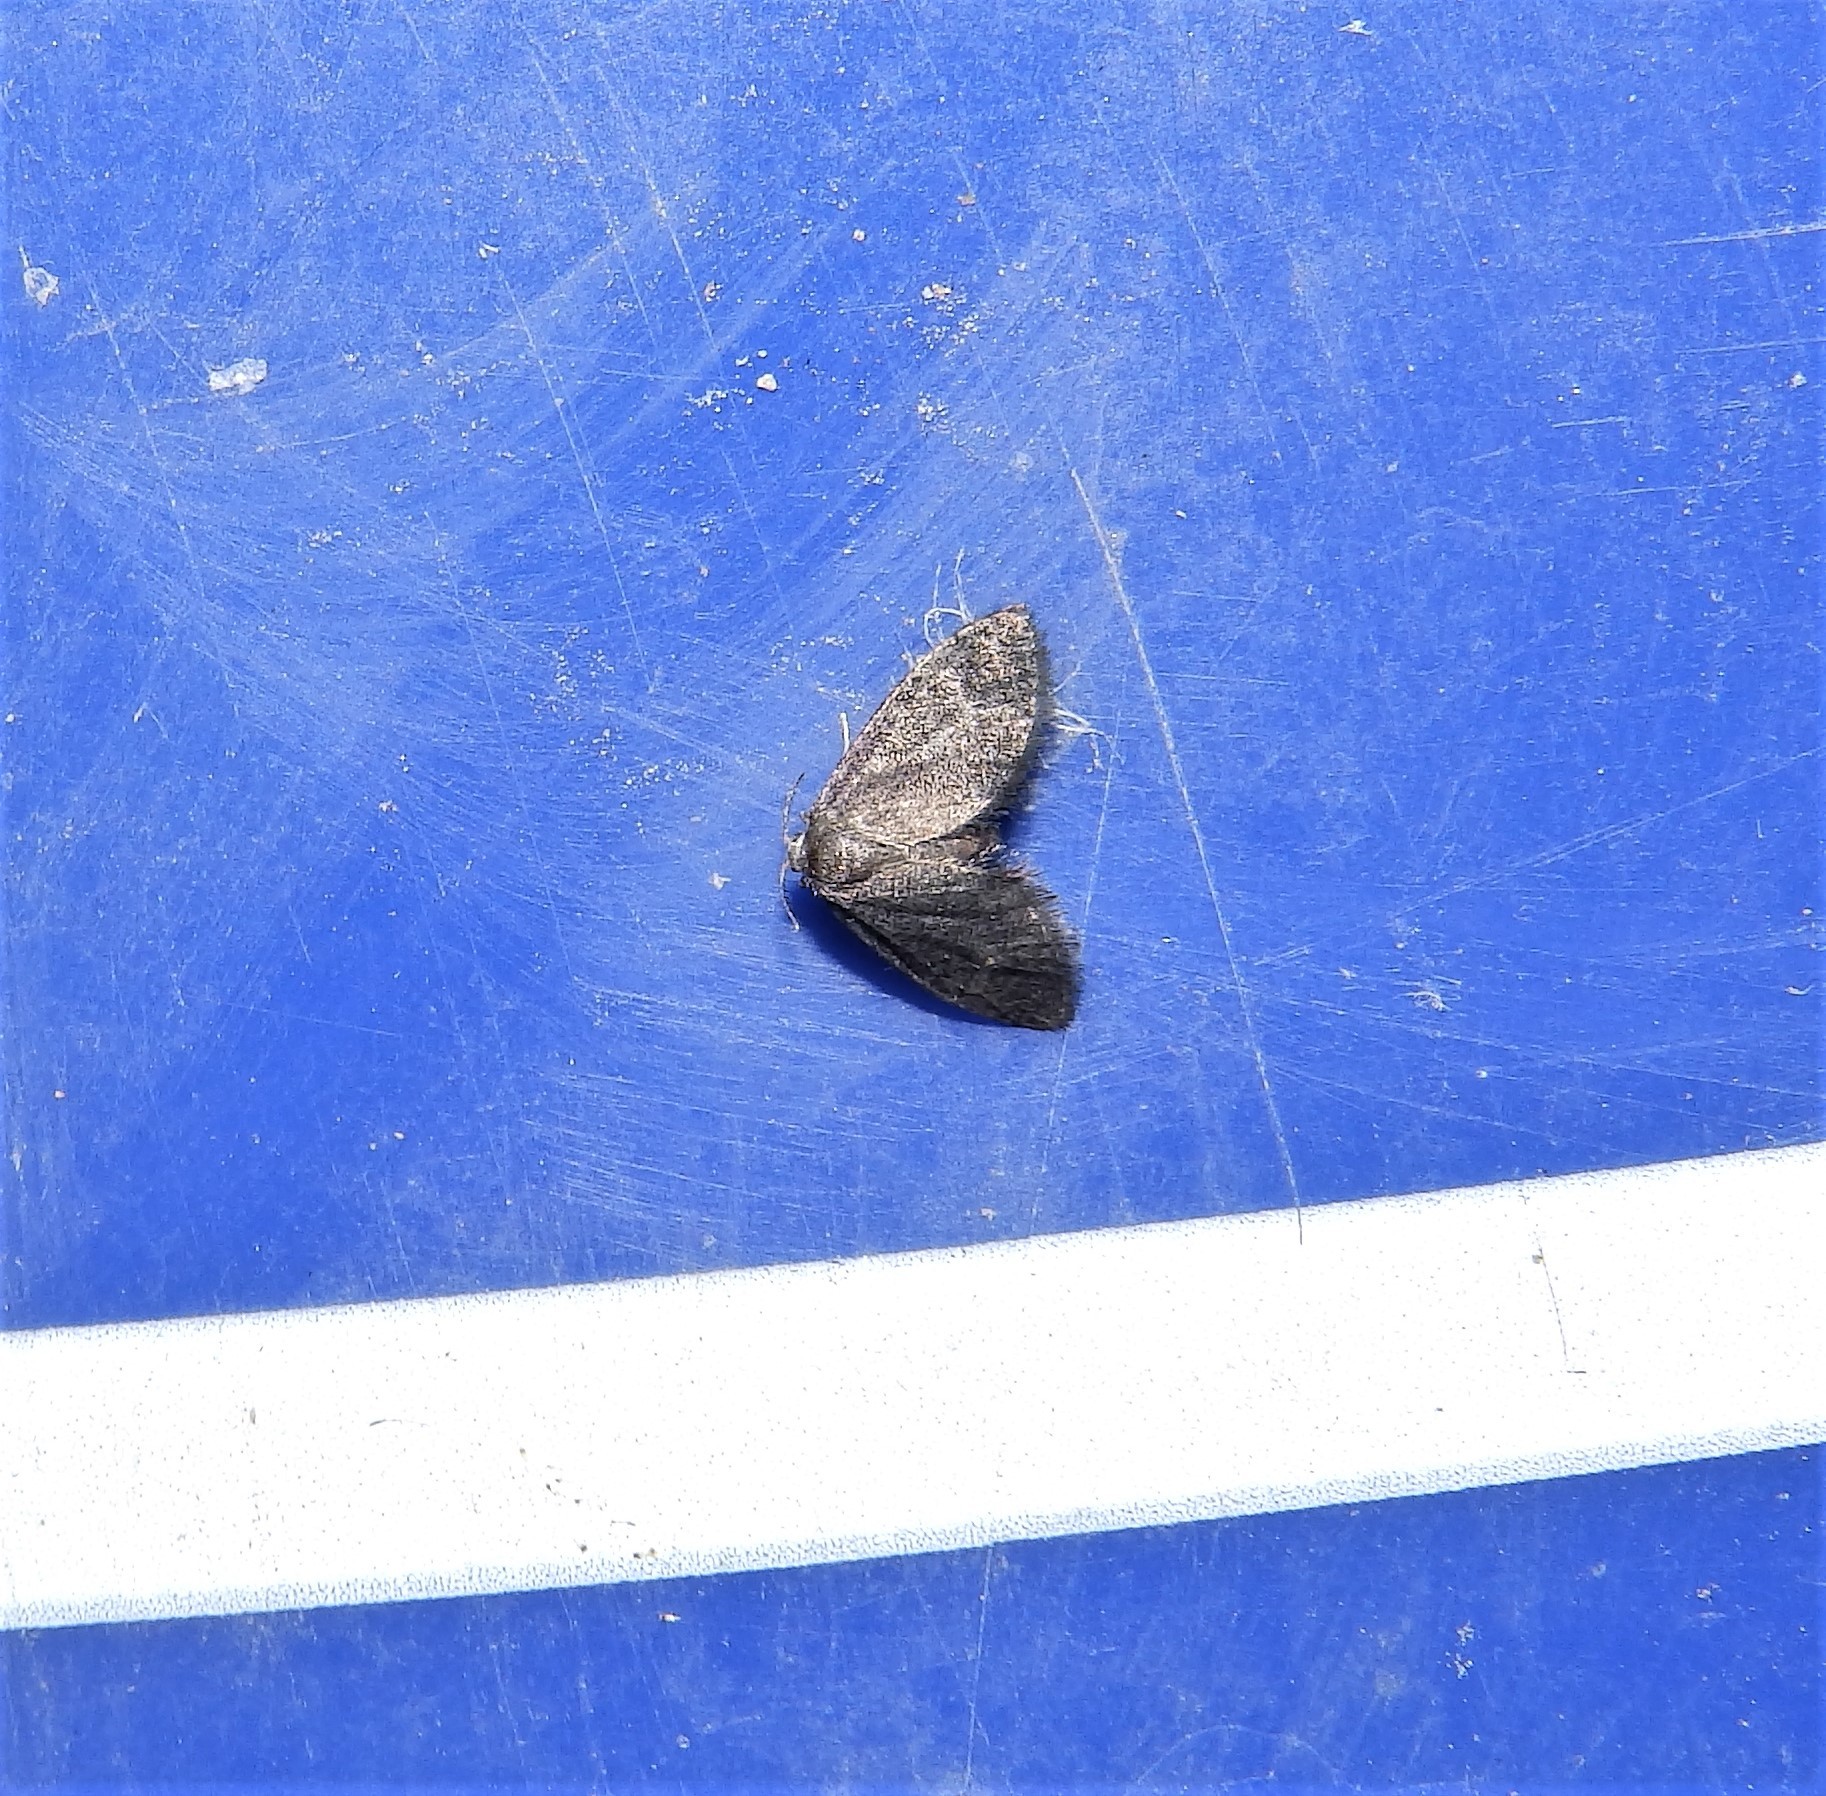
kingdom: Animalia
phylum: Arthropoda
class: Insecta
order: Lepidoptera
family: Epipyropidae
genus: Fulgoraecia
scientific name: Fulgoraecia exigua
